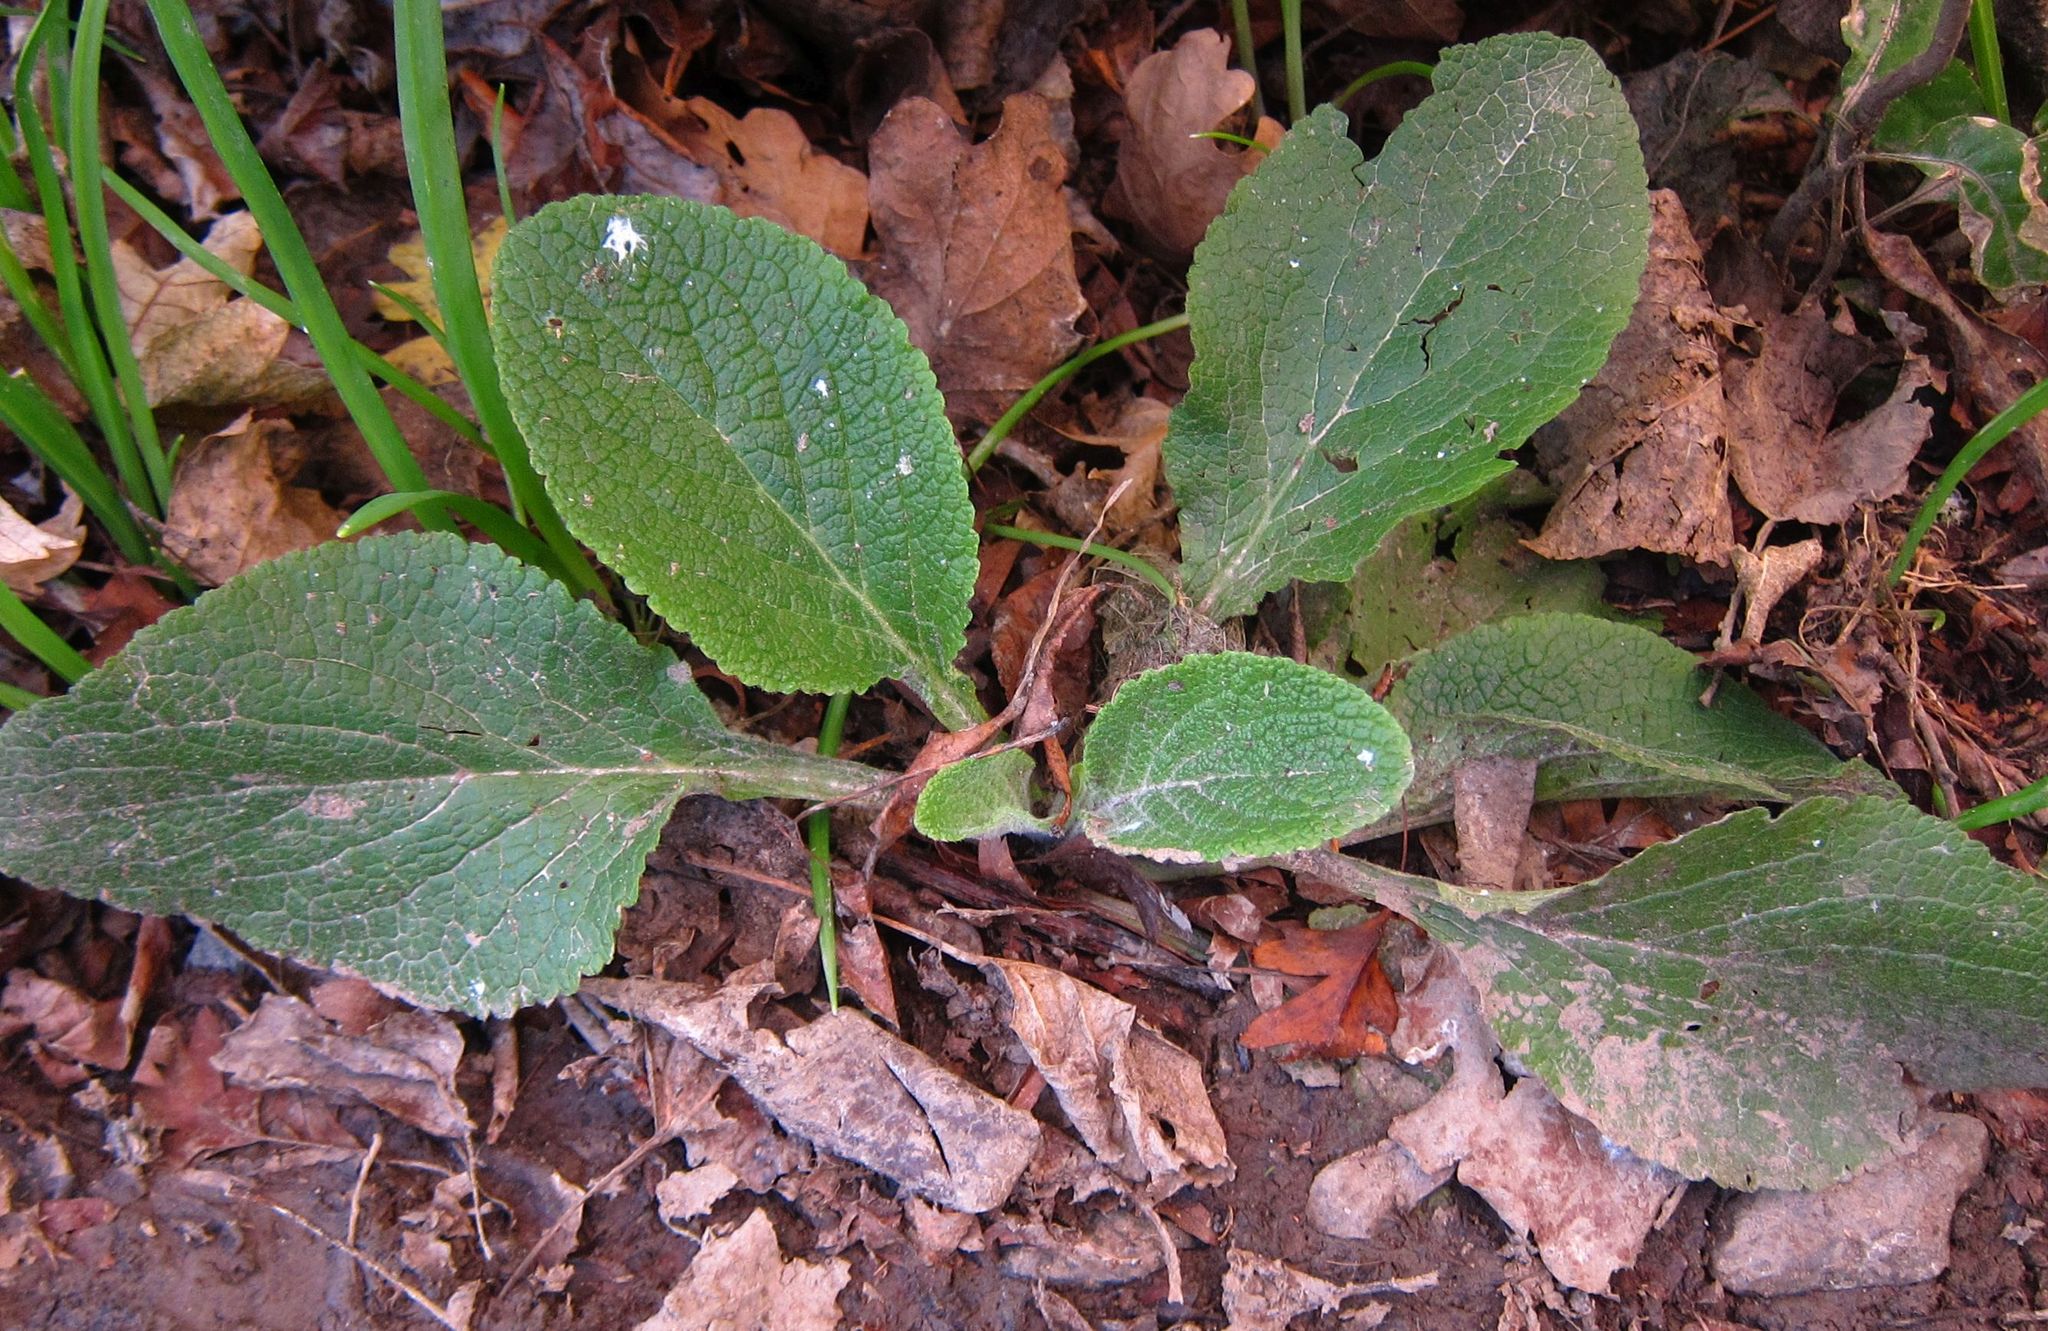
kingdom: Plantae
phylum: Tracheophyta
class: Magnoliopsida
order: Lamiales
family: Plantaginaceae
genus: Digitalis
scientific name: Digitalis purpurea
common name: Foxglove
